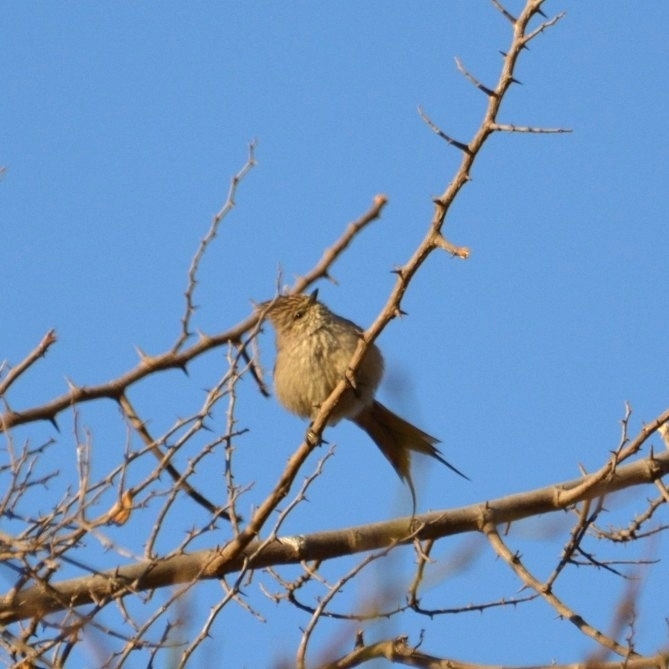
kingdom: Animalia
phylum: Chordata
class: Aves
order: Passeriformes
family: Furnariidae
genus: Leptasthenura
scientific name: Leptasthenura platensis
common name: Tufted tit-spinetail
